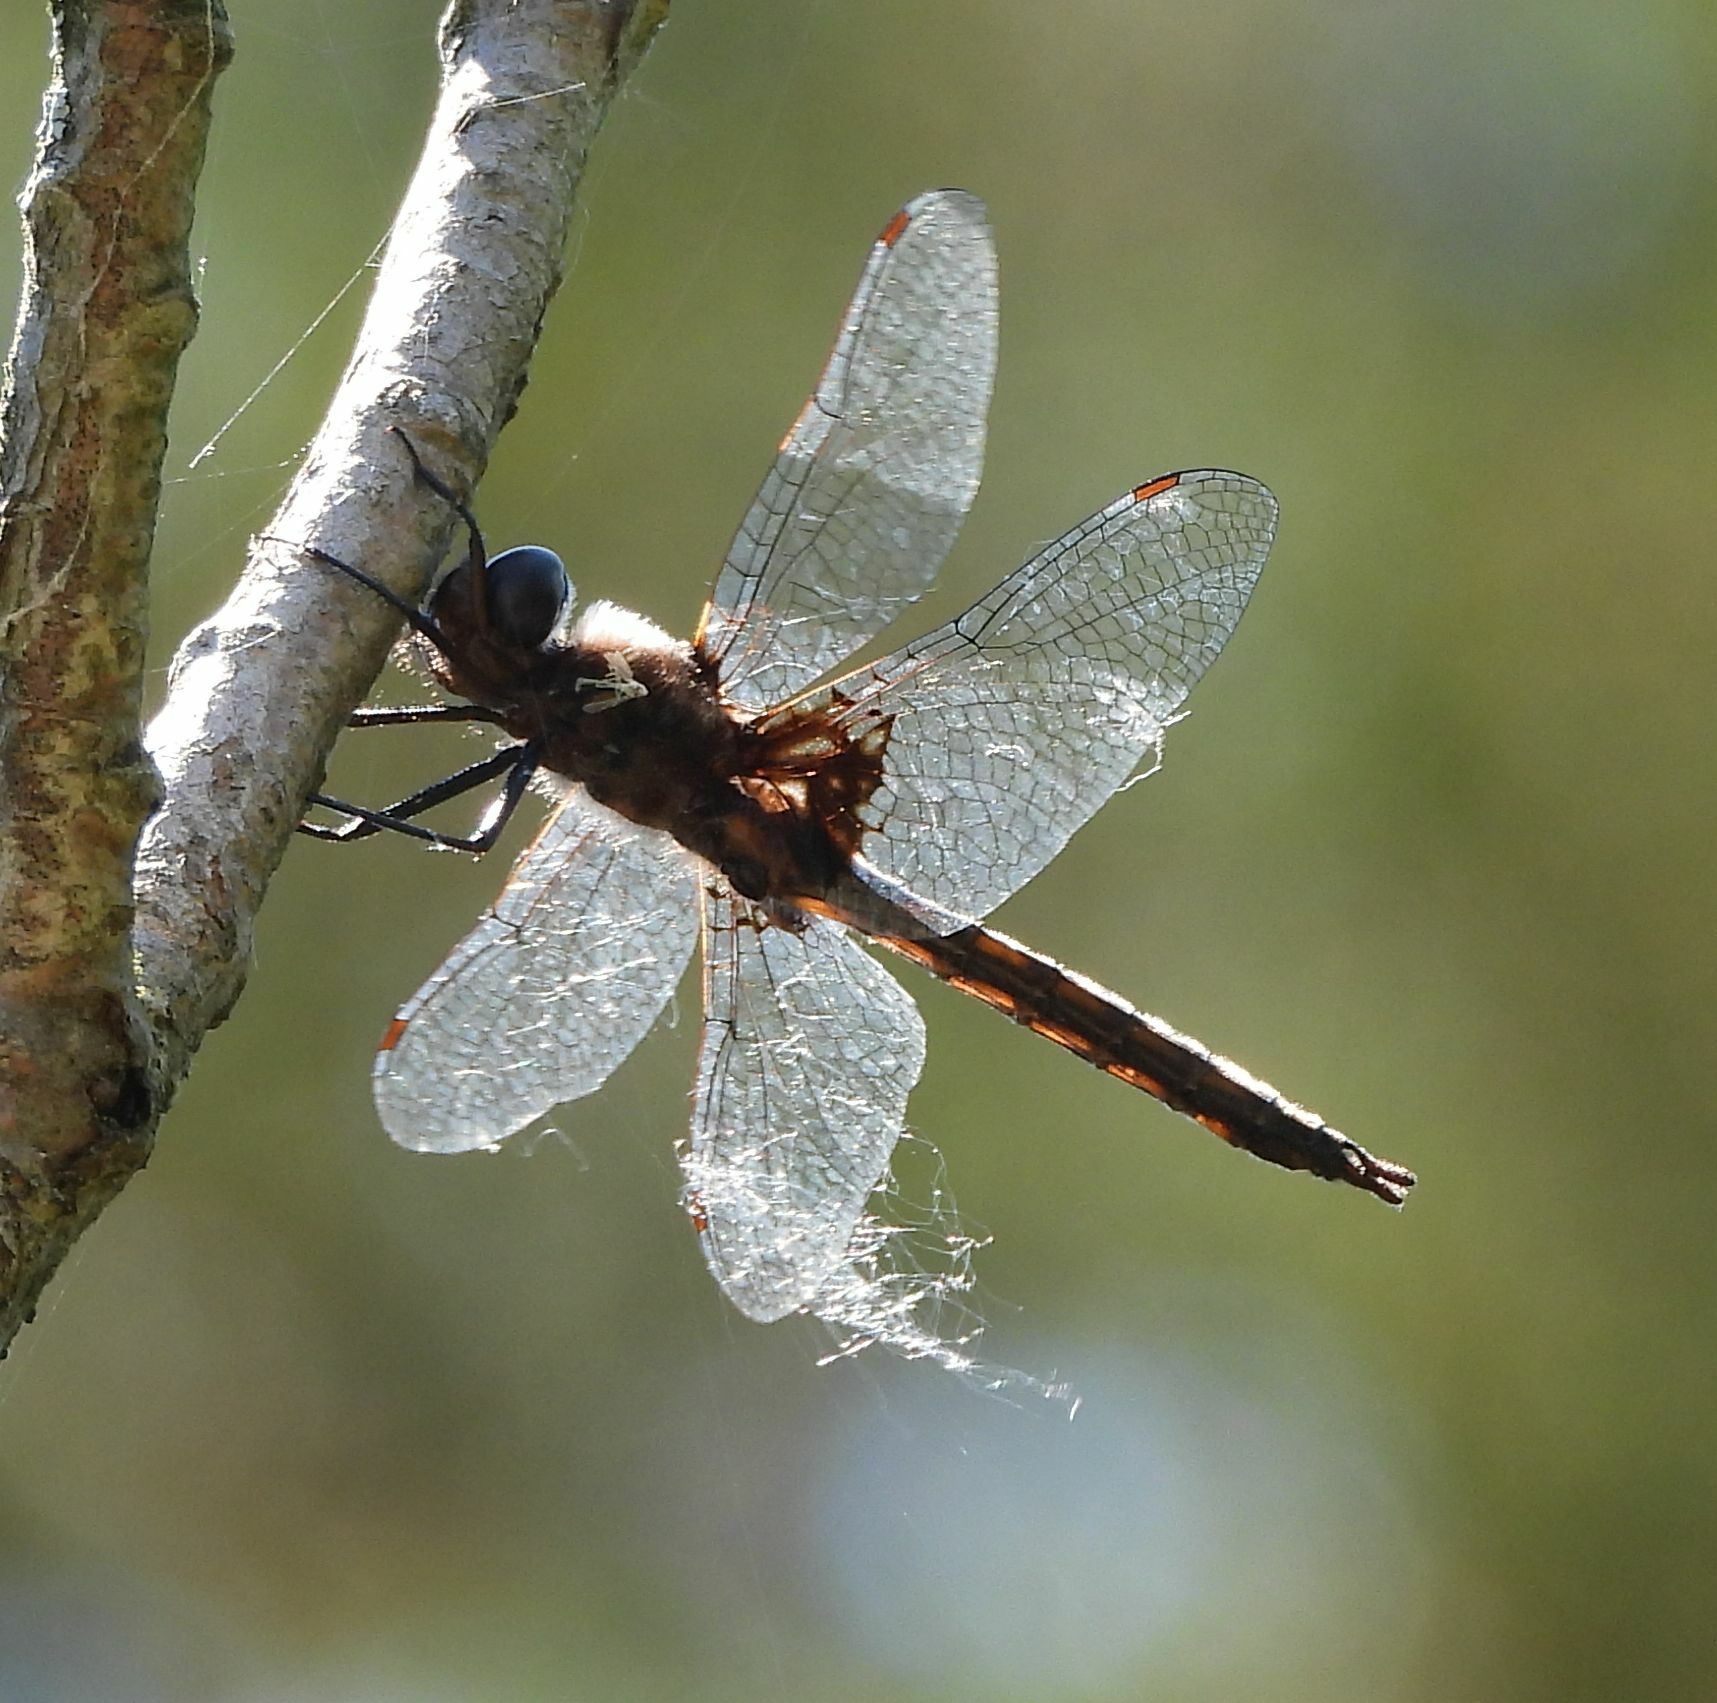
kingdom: Animalia
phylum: Arthropoda
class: Insecta
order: Odonata
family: Corduliidae
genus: Epitheca
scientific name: Epitheca cynosura
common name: Common baskettail
